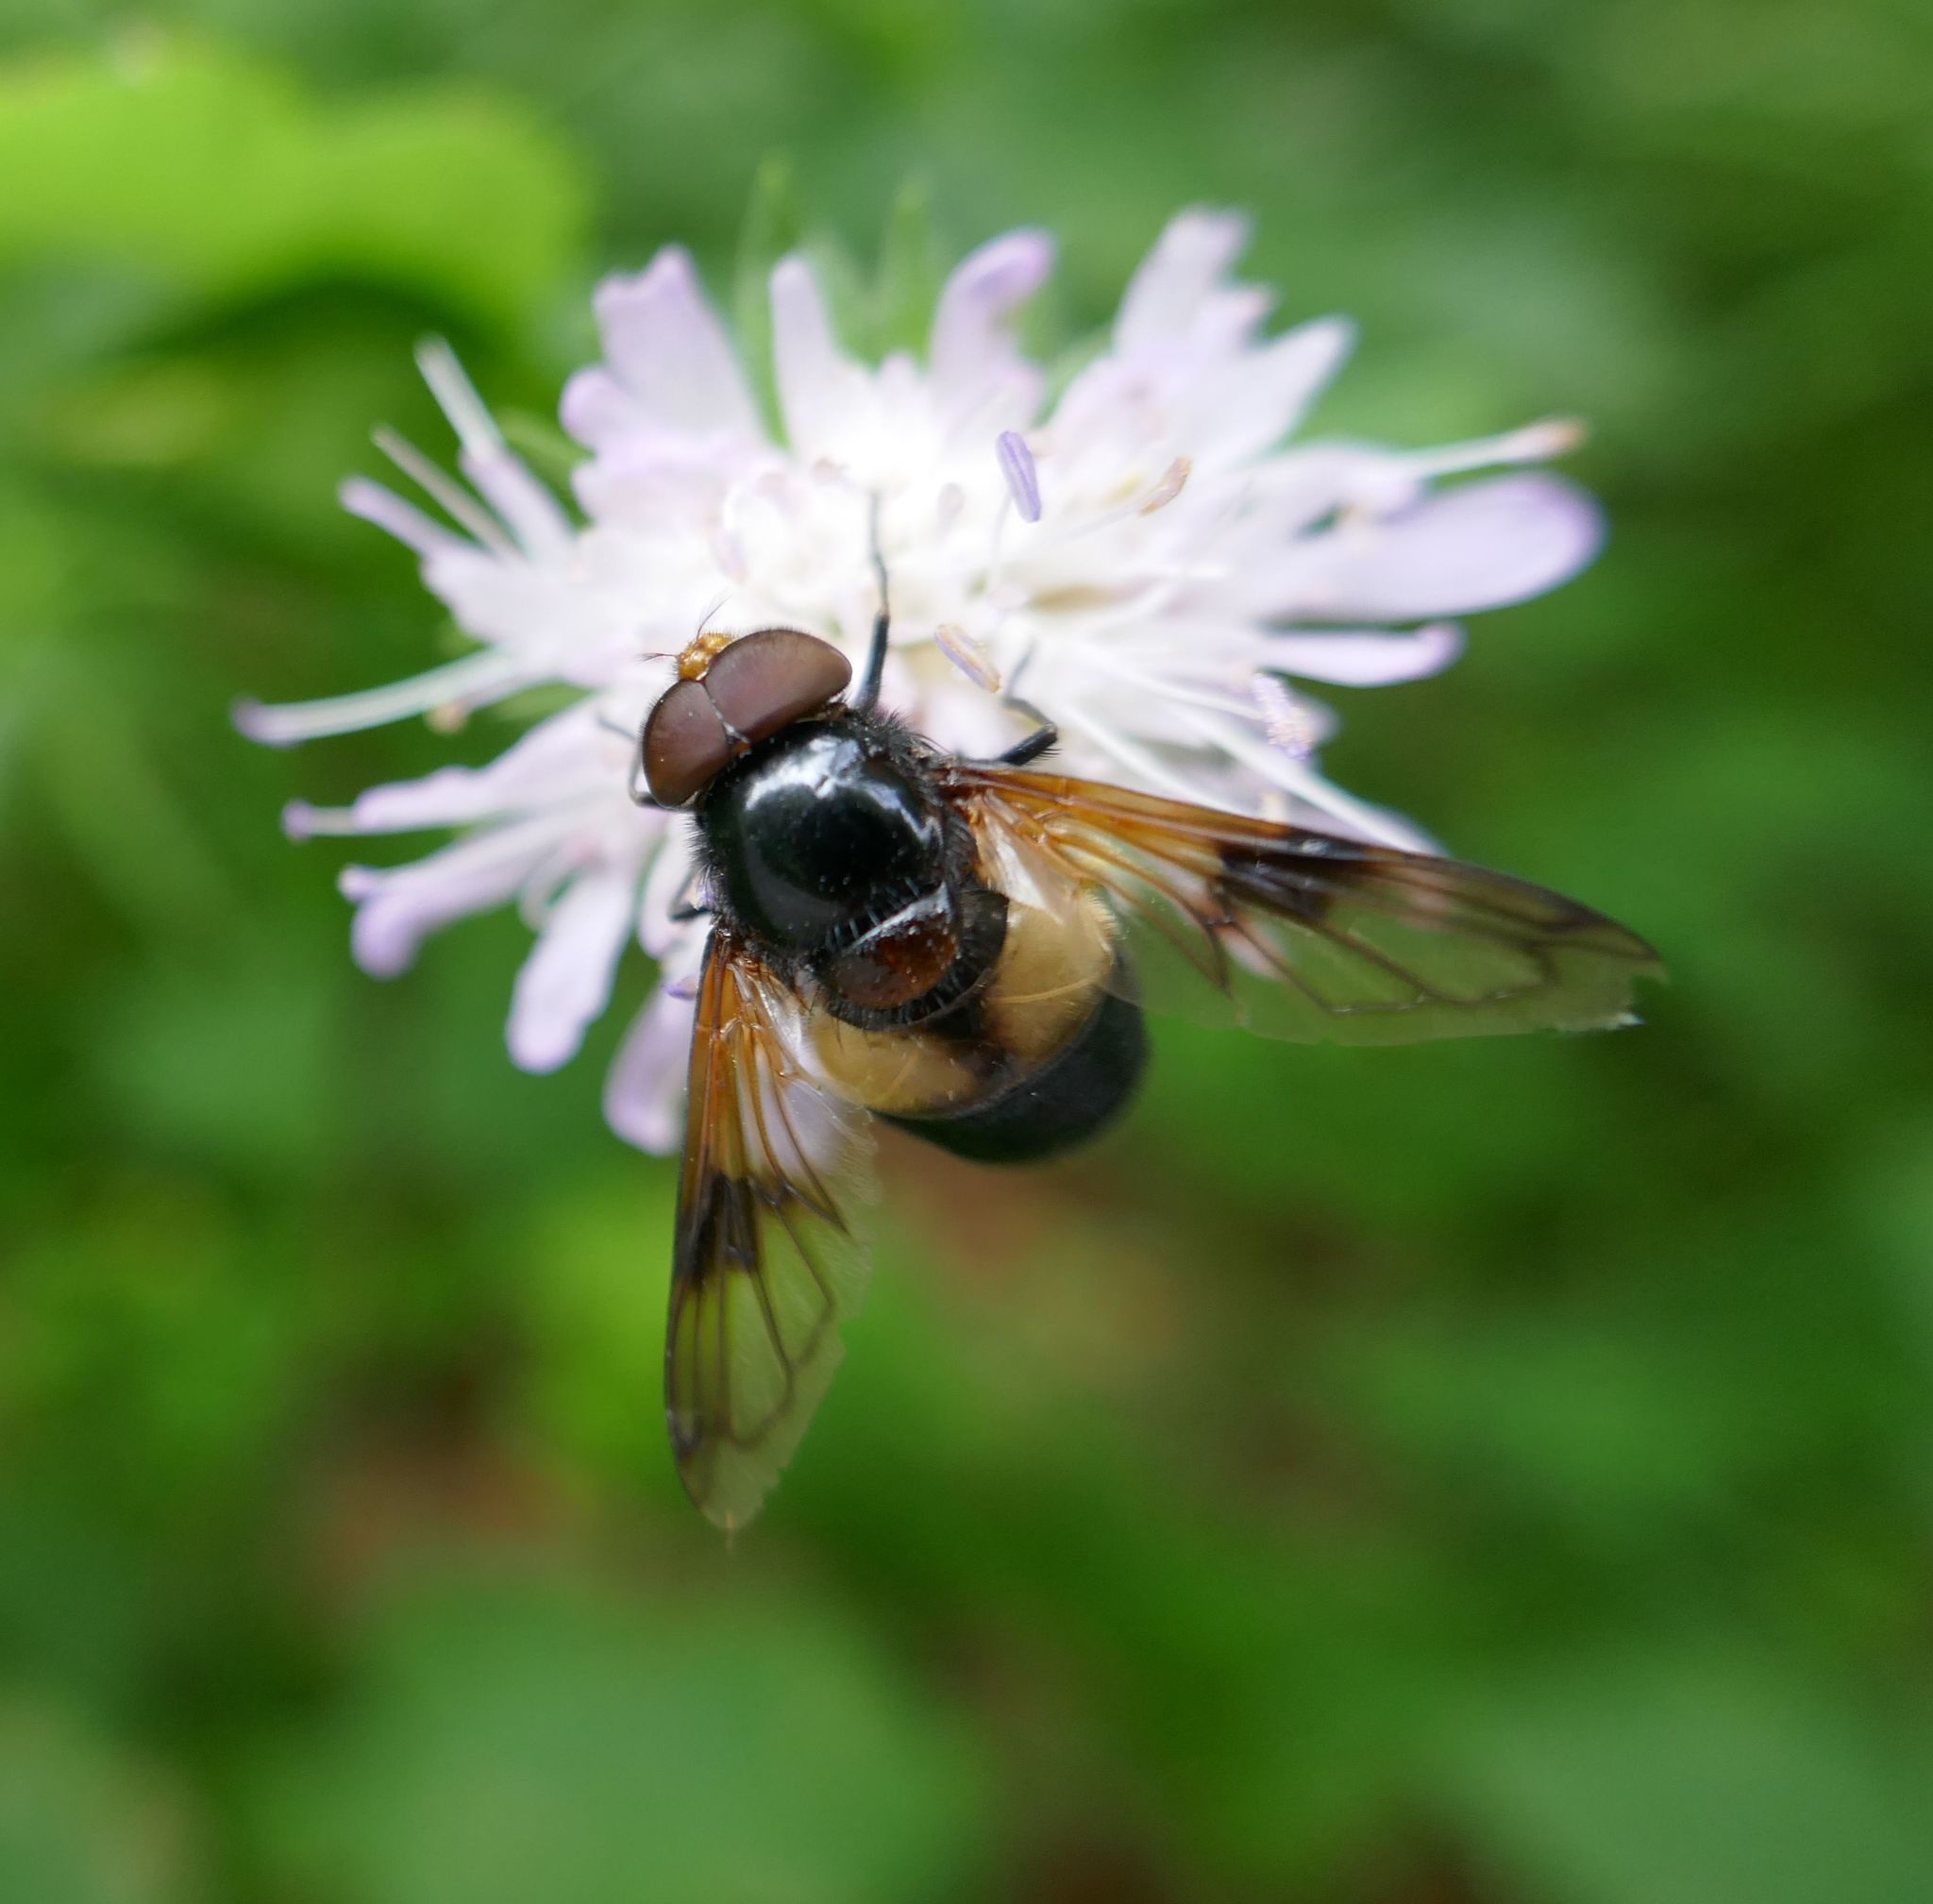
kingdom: Animalia
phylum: Arthropoda
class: Insecta
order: Diptera
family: Syrphidae
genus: Volucella
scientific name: Volucella pellucens
